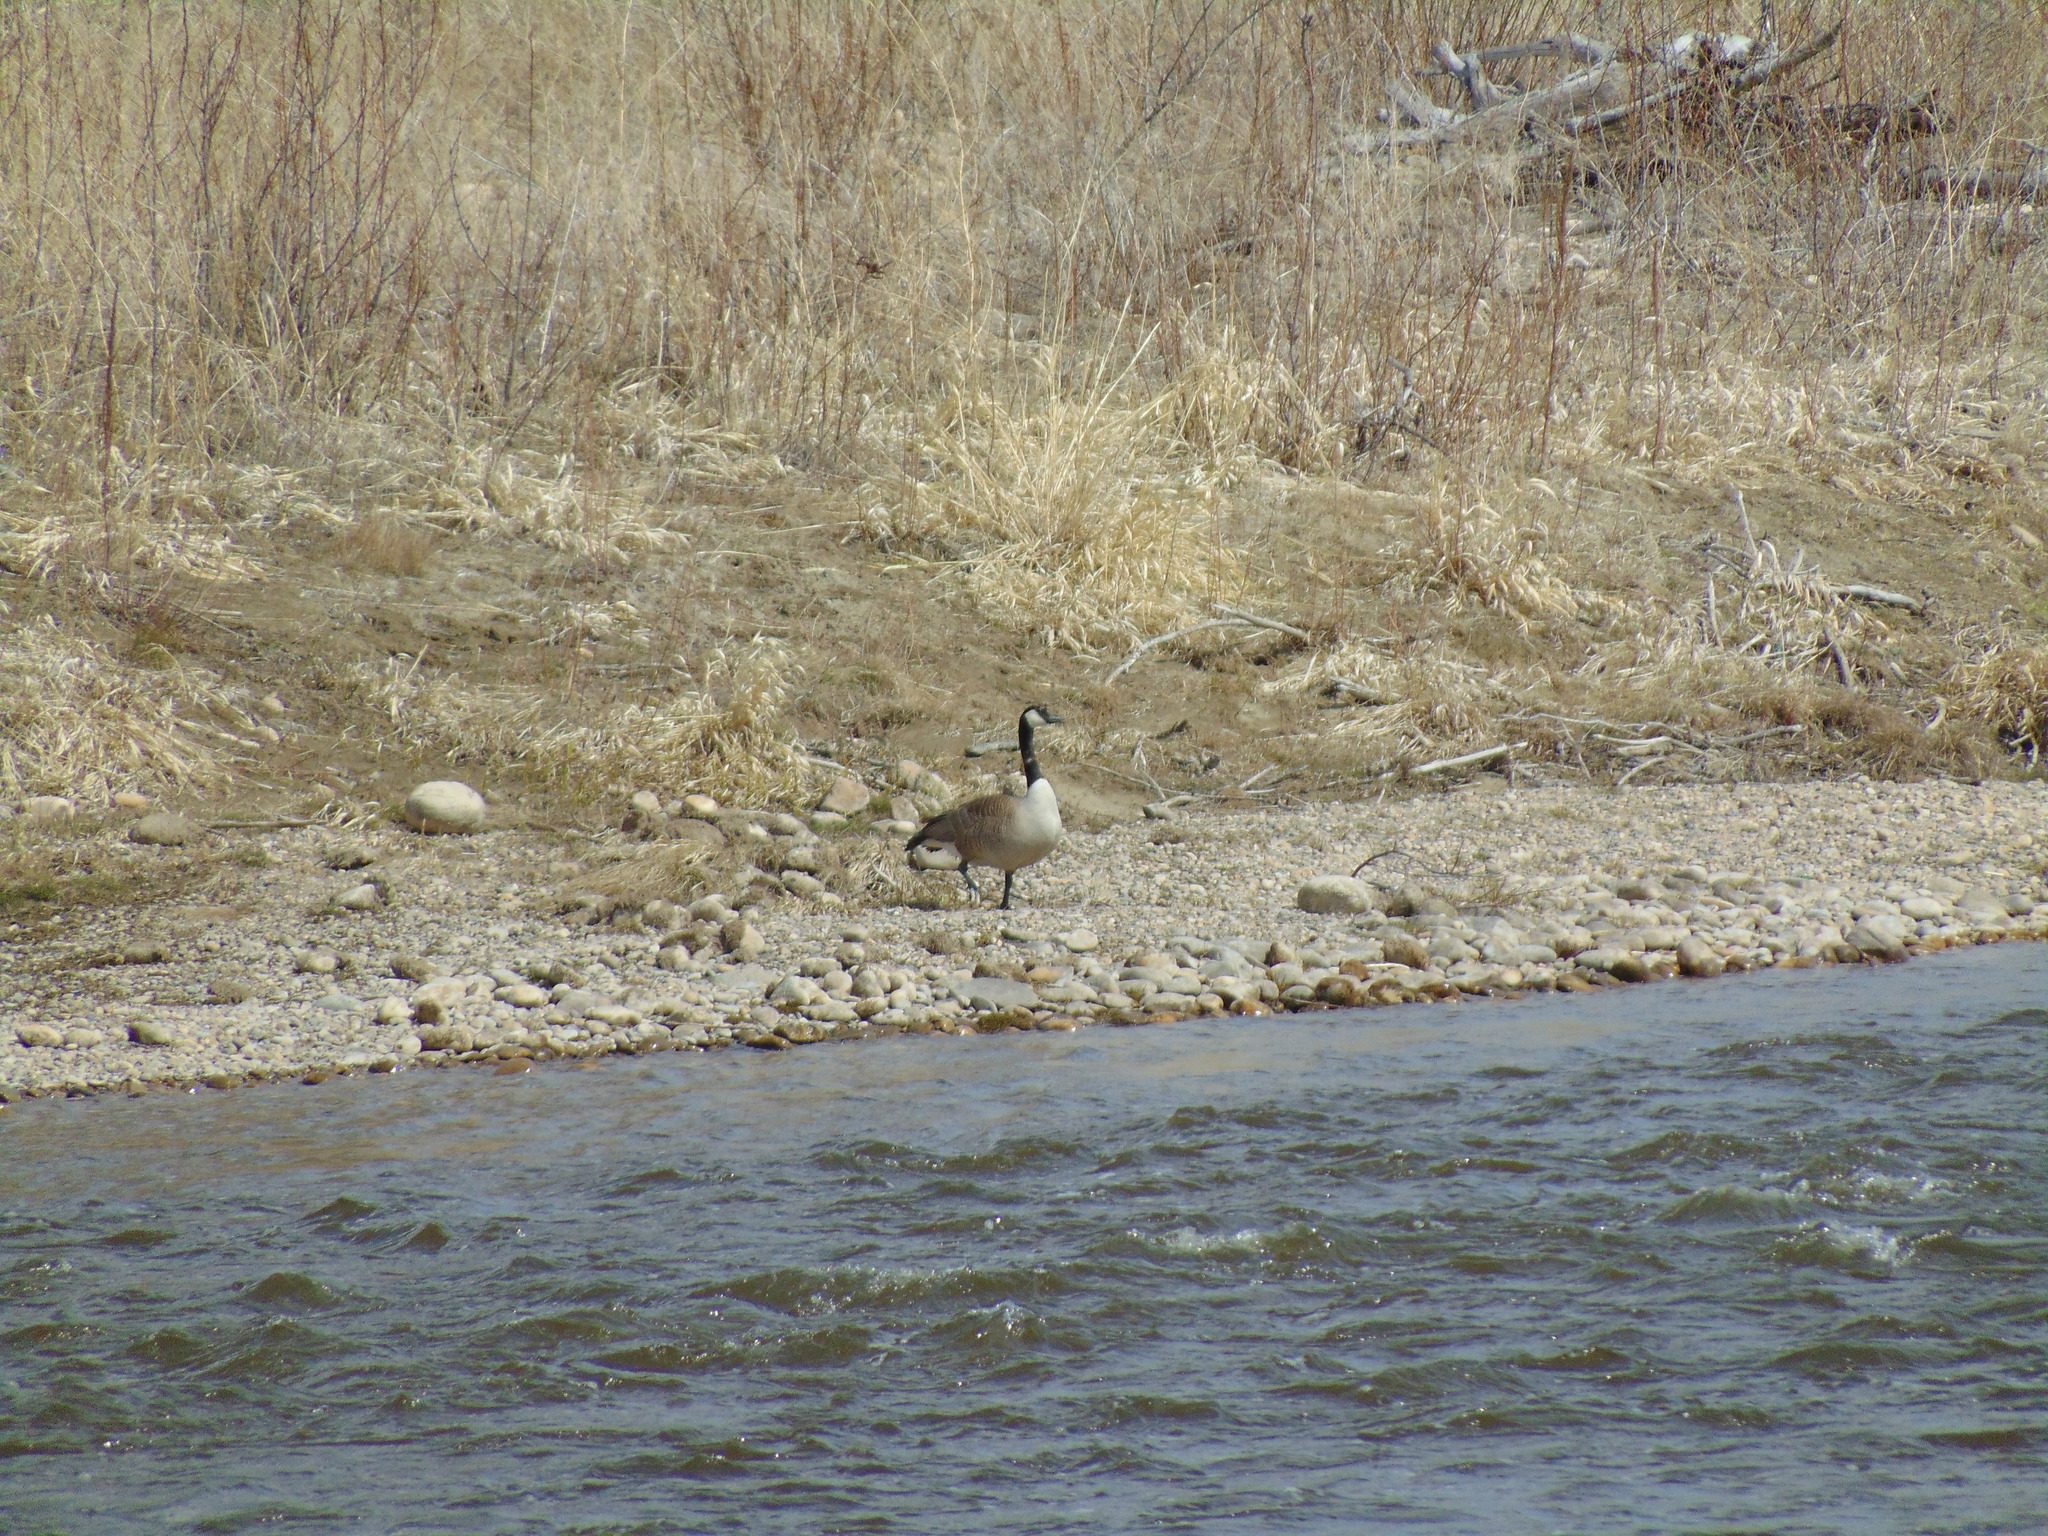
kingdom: Animalia
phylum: Chordata
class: Aves
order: Anseriformes
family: Anatidae
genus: Branta
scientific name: Branta canadensis
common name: Canada goose
